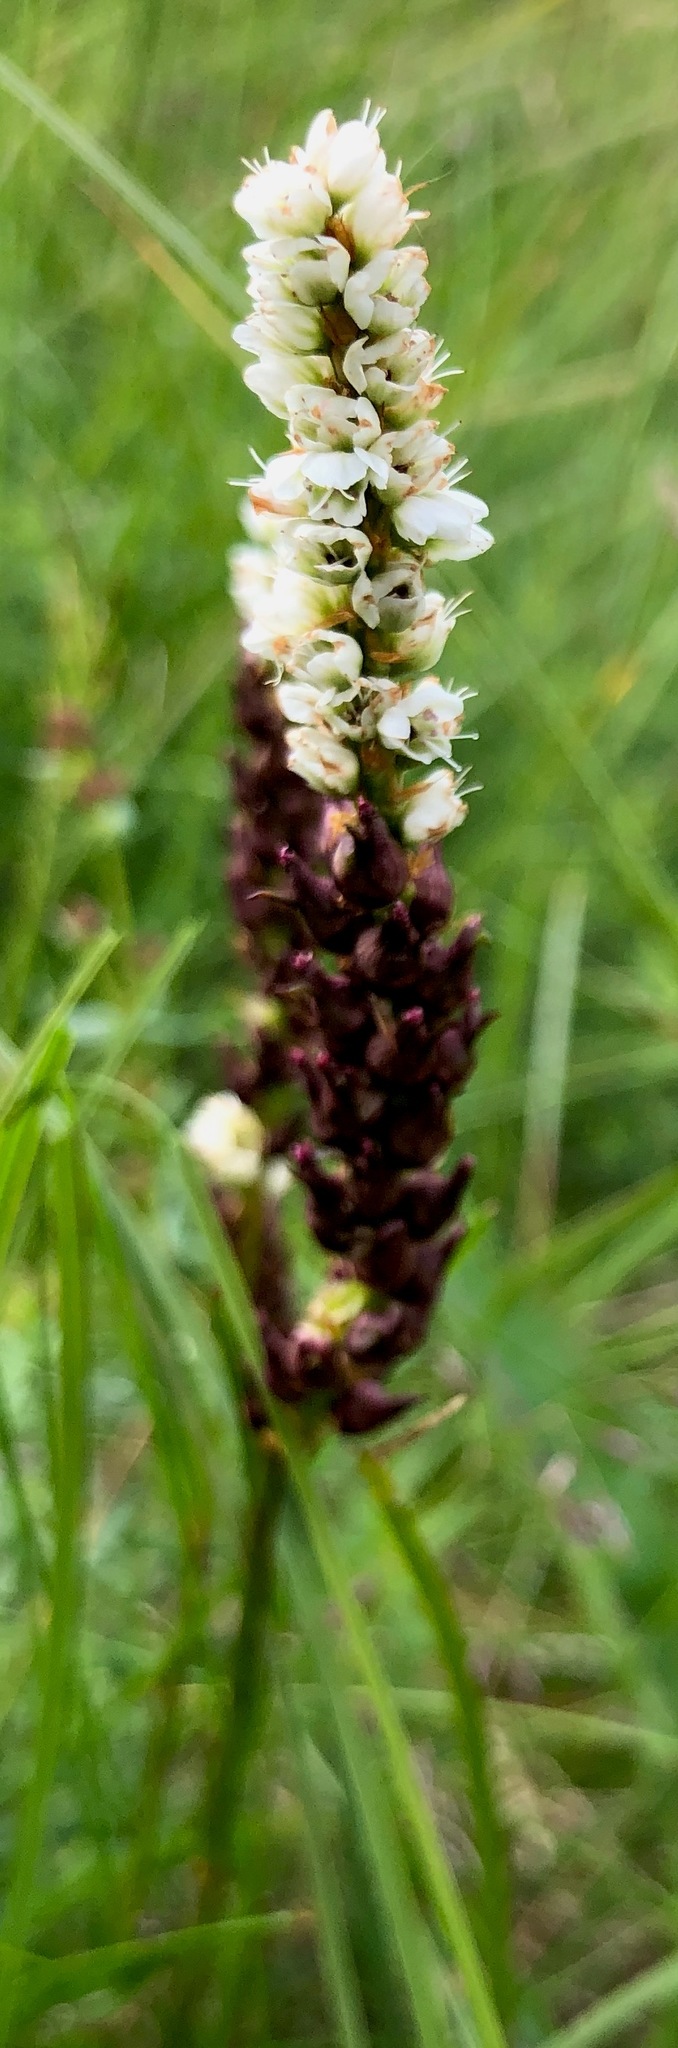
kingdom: Plantae
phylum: Tracheophyta
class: Magnoliopsida
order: Caryophyllales
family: Polygonaceae
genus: Bistorta
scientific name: Bistorta vivipara
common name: Alpine bistort
